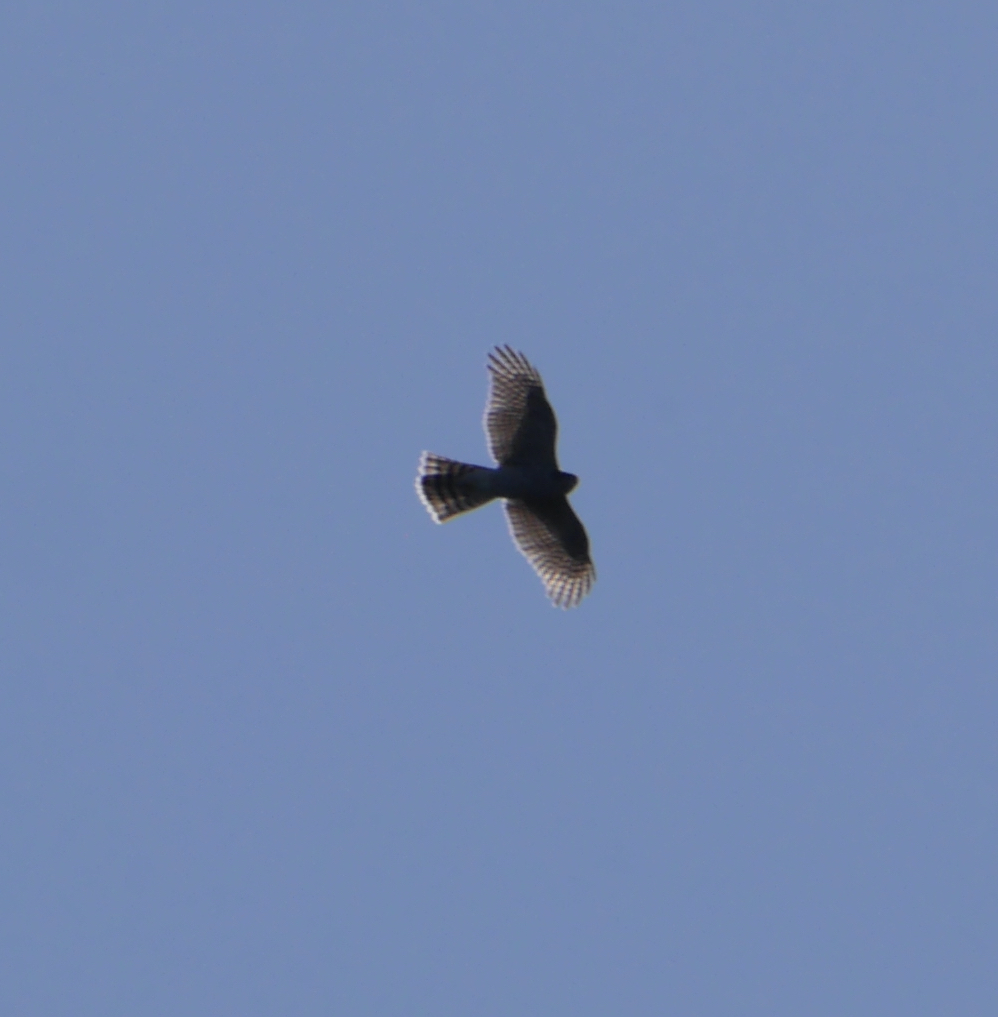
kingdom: Animalia
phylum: Chordata
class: Aves
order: Accipitriformes
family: Accipitridae
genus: Accipiter
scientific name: Accipiter nisus
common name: Eurasian sparrowhawk
